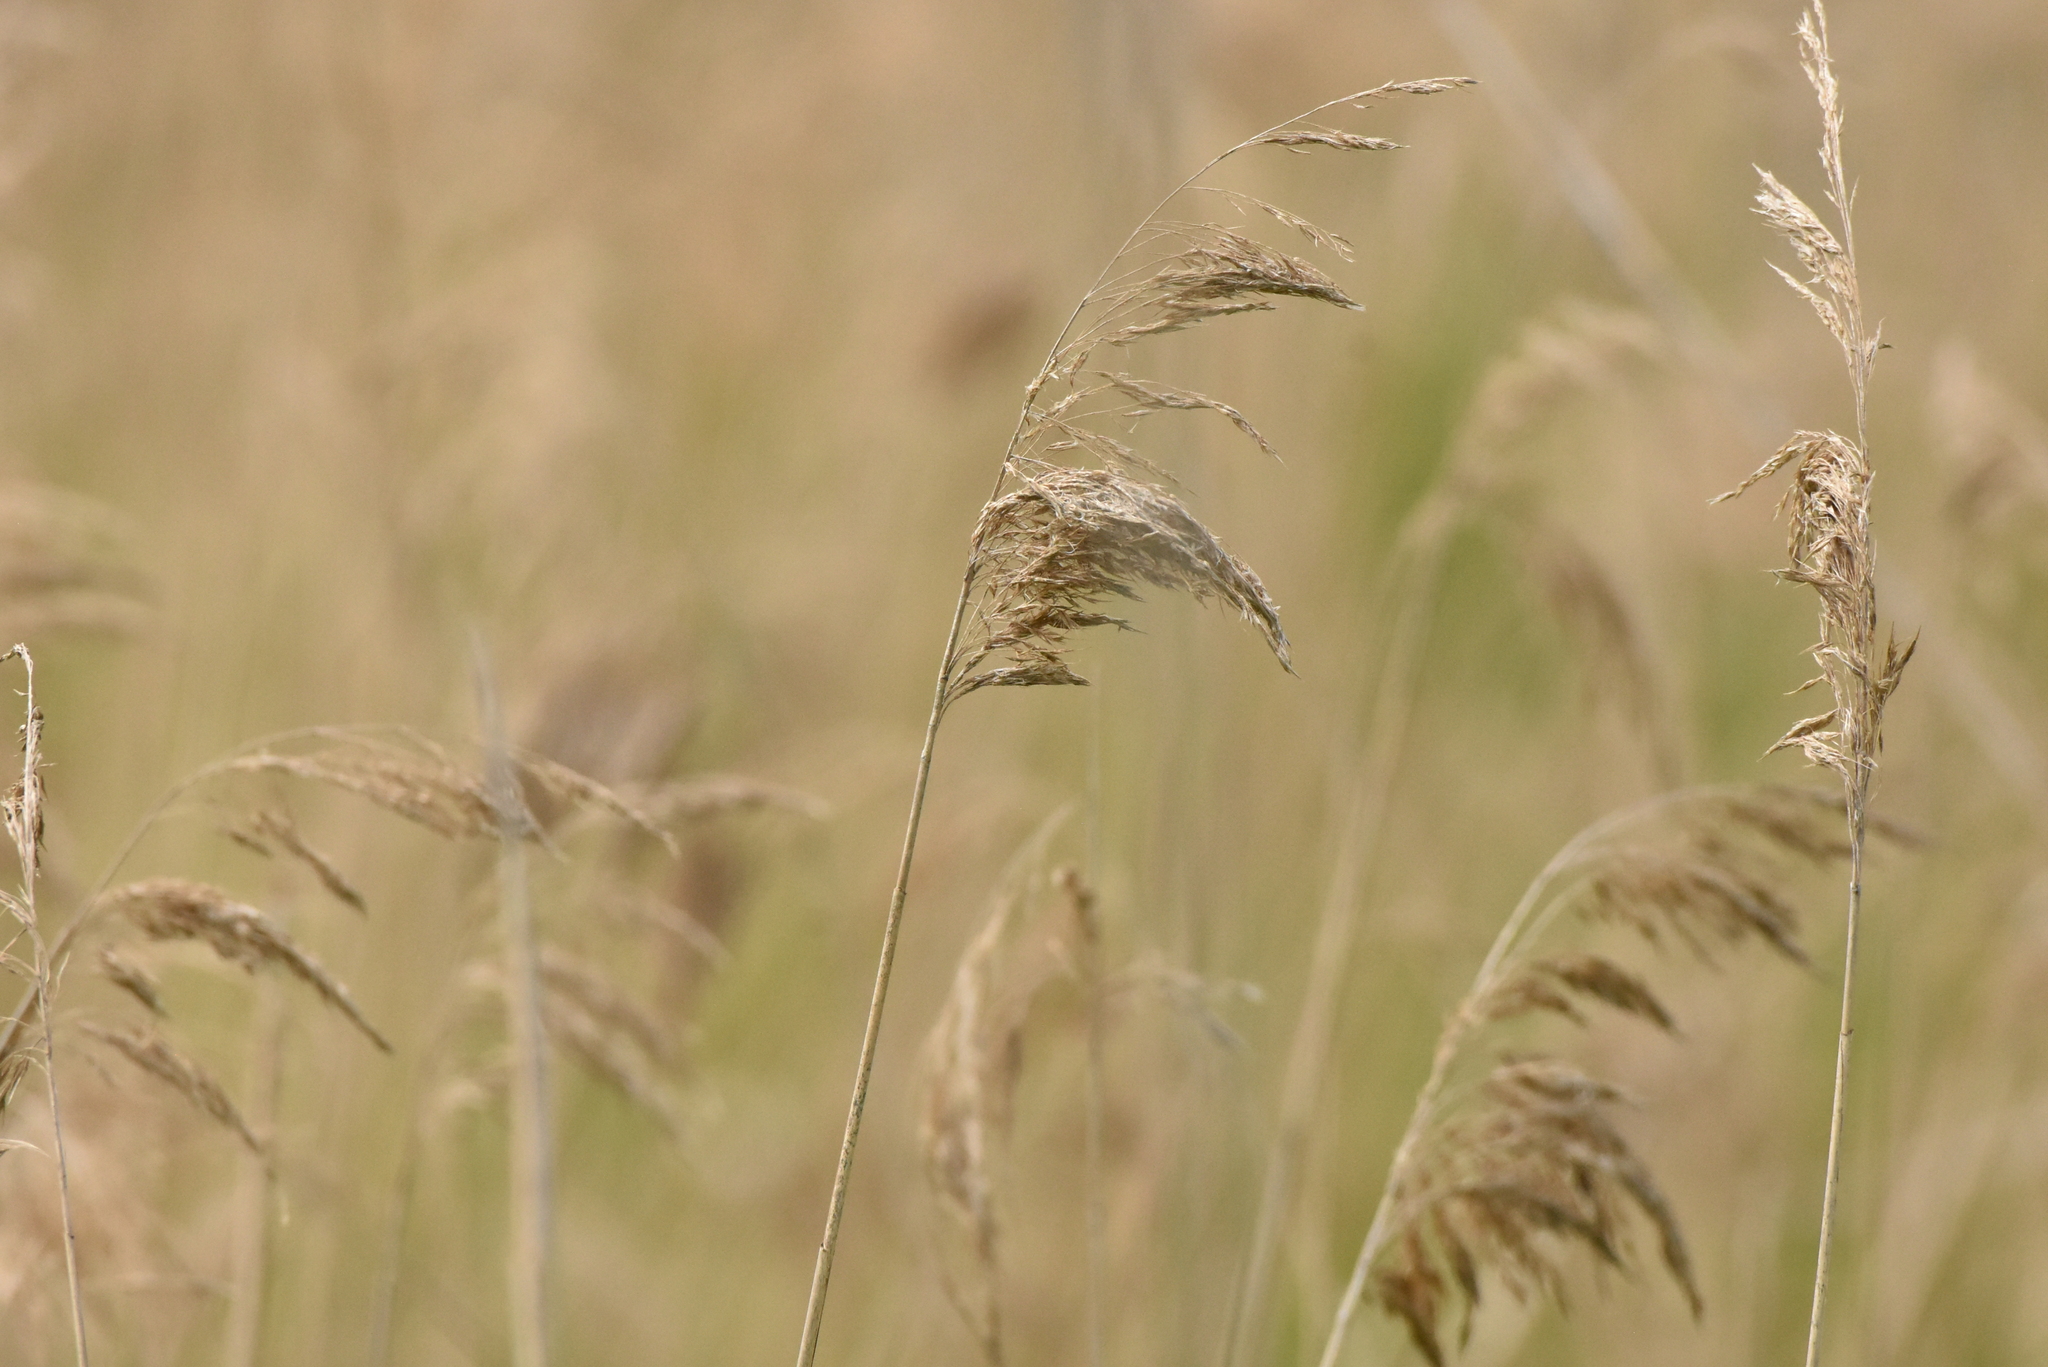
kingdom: Plantae
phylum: Tracheophyta
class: Liliopsida
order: Poales
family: Poaceae
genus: Phragmites
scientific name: Phragmites australis
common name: Common reed
